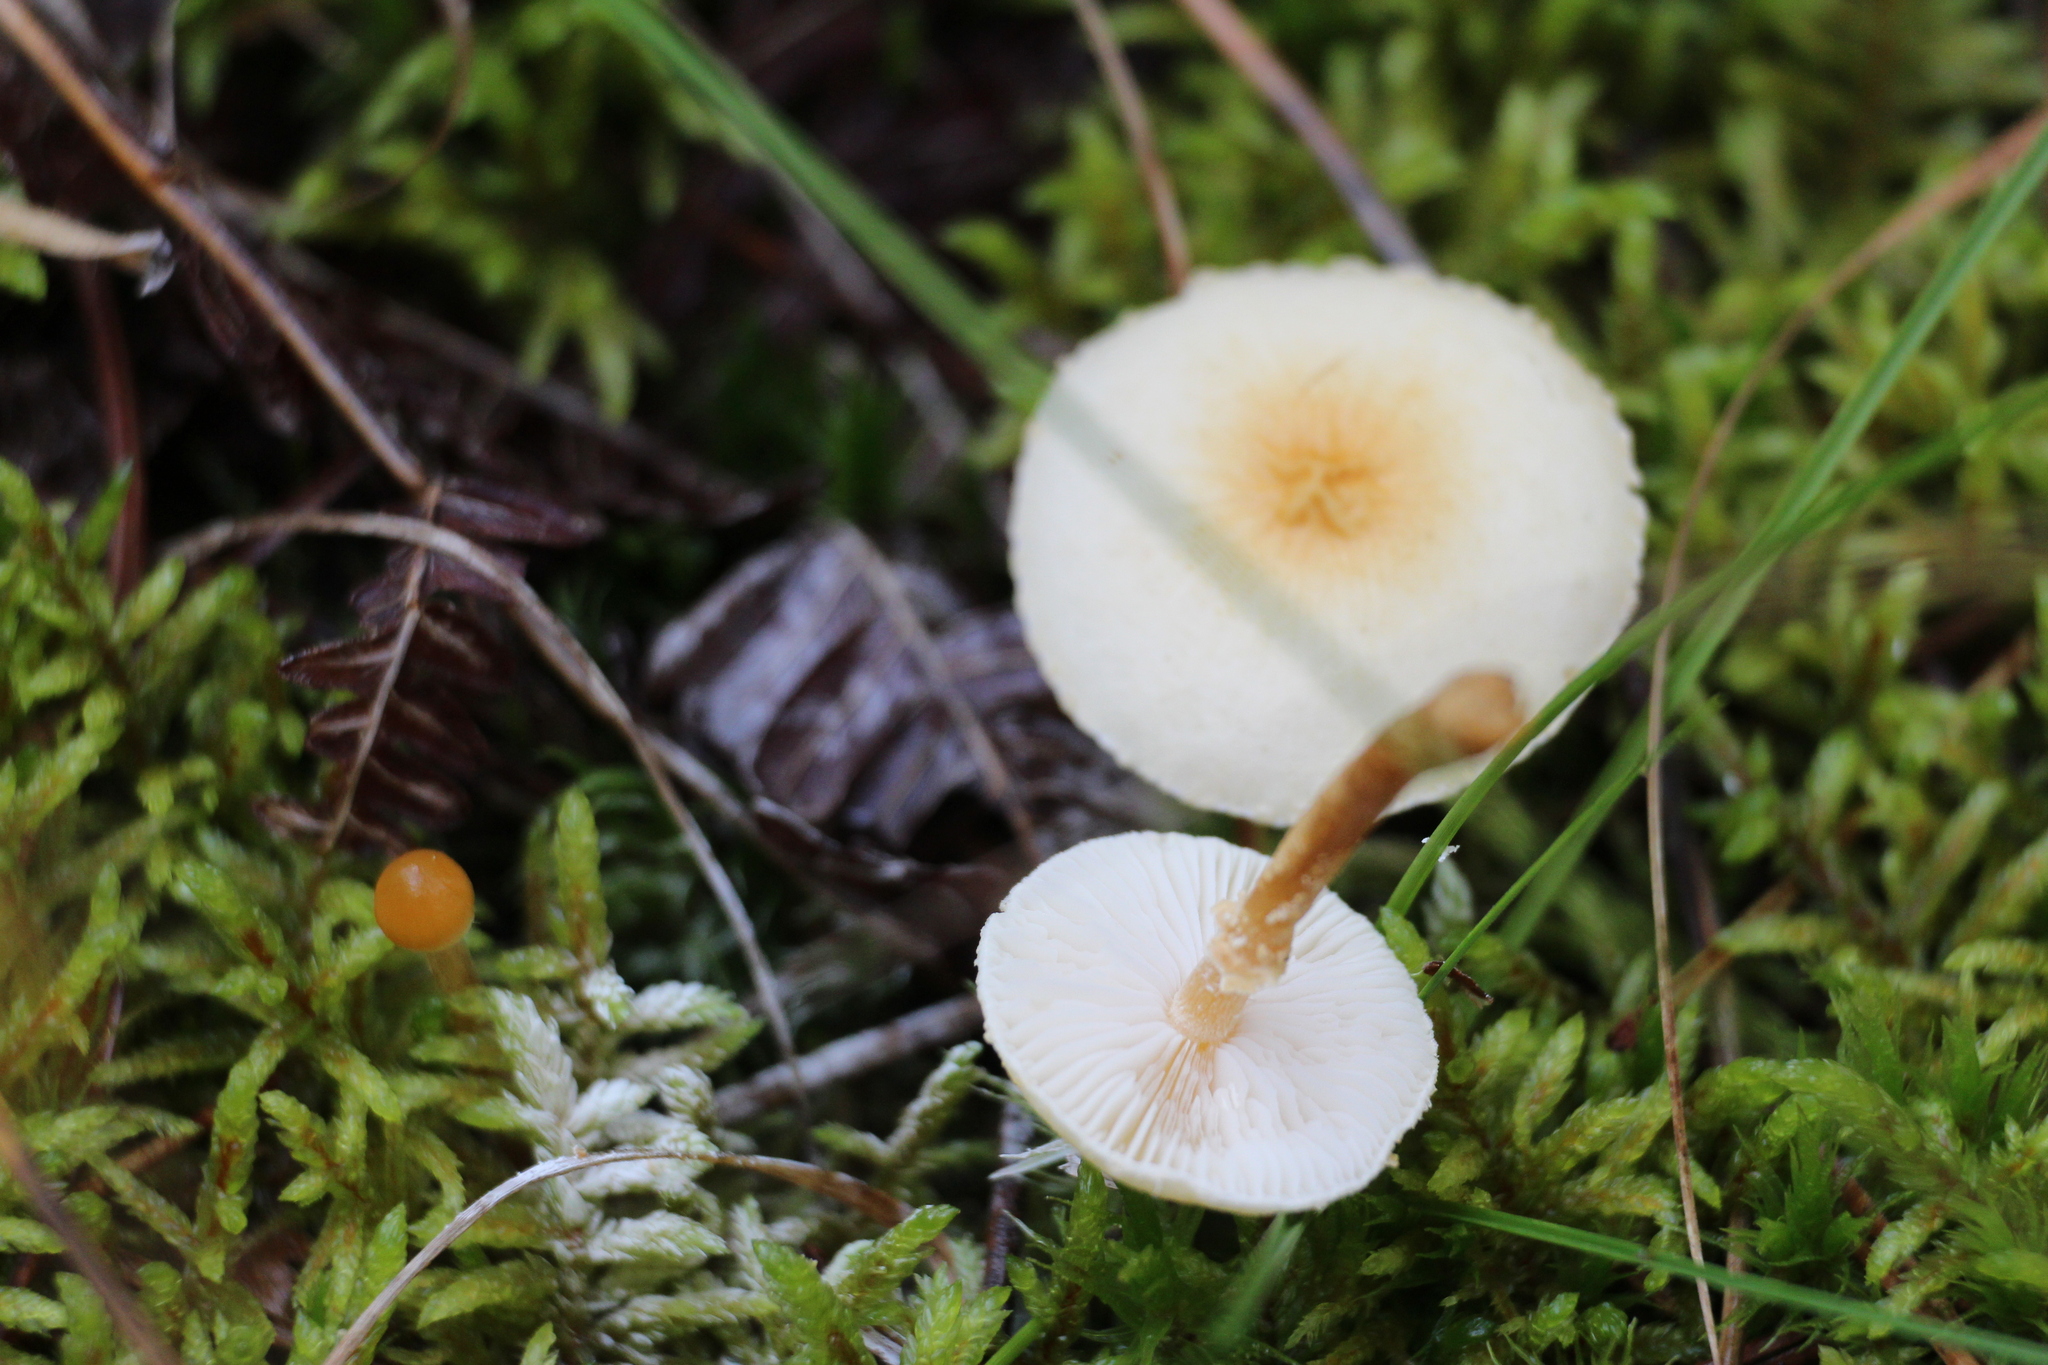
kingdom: Fungi
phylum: Basidiomycota
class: Agaricomycetes
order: Agaricales
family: Tricholomataceae
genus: Cystoderma
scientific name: Cystoderma amianthinum
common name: Earthy powdercap
